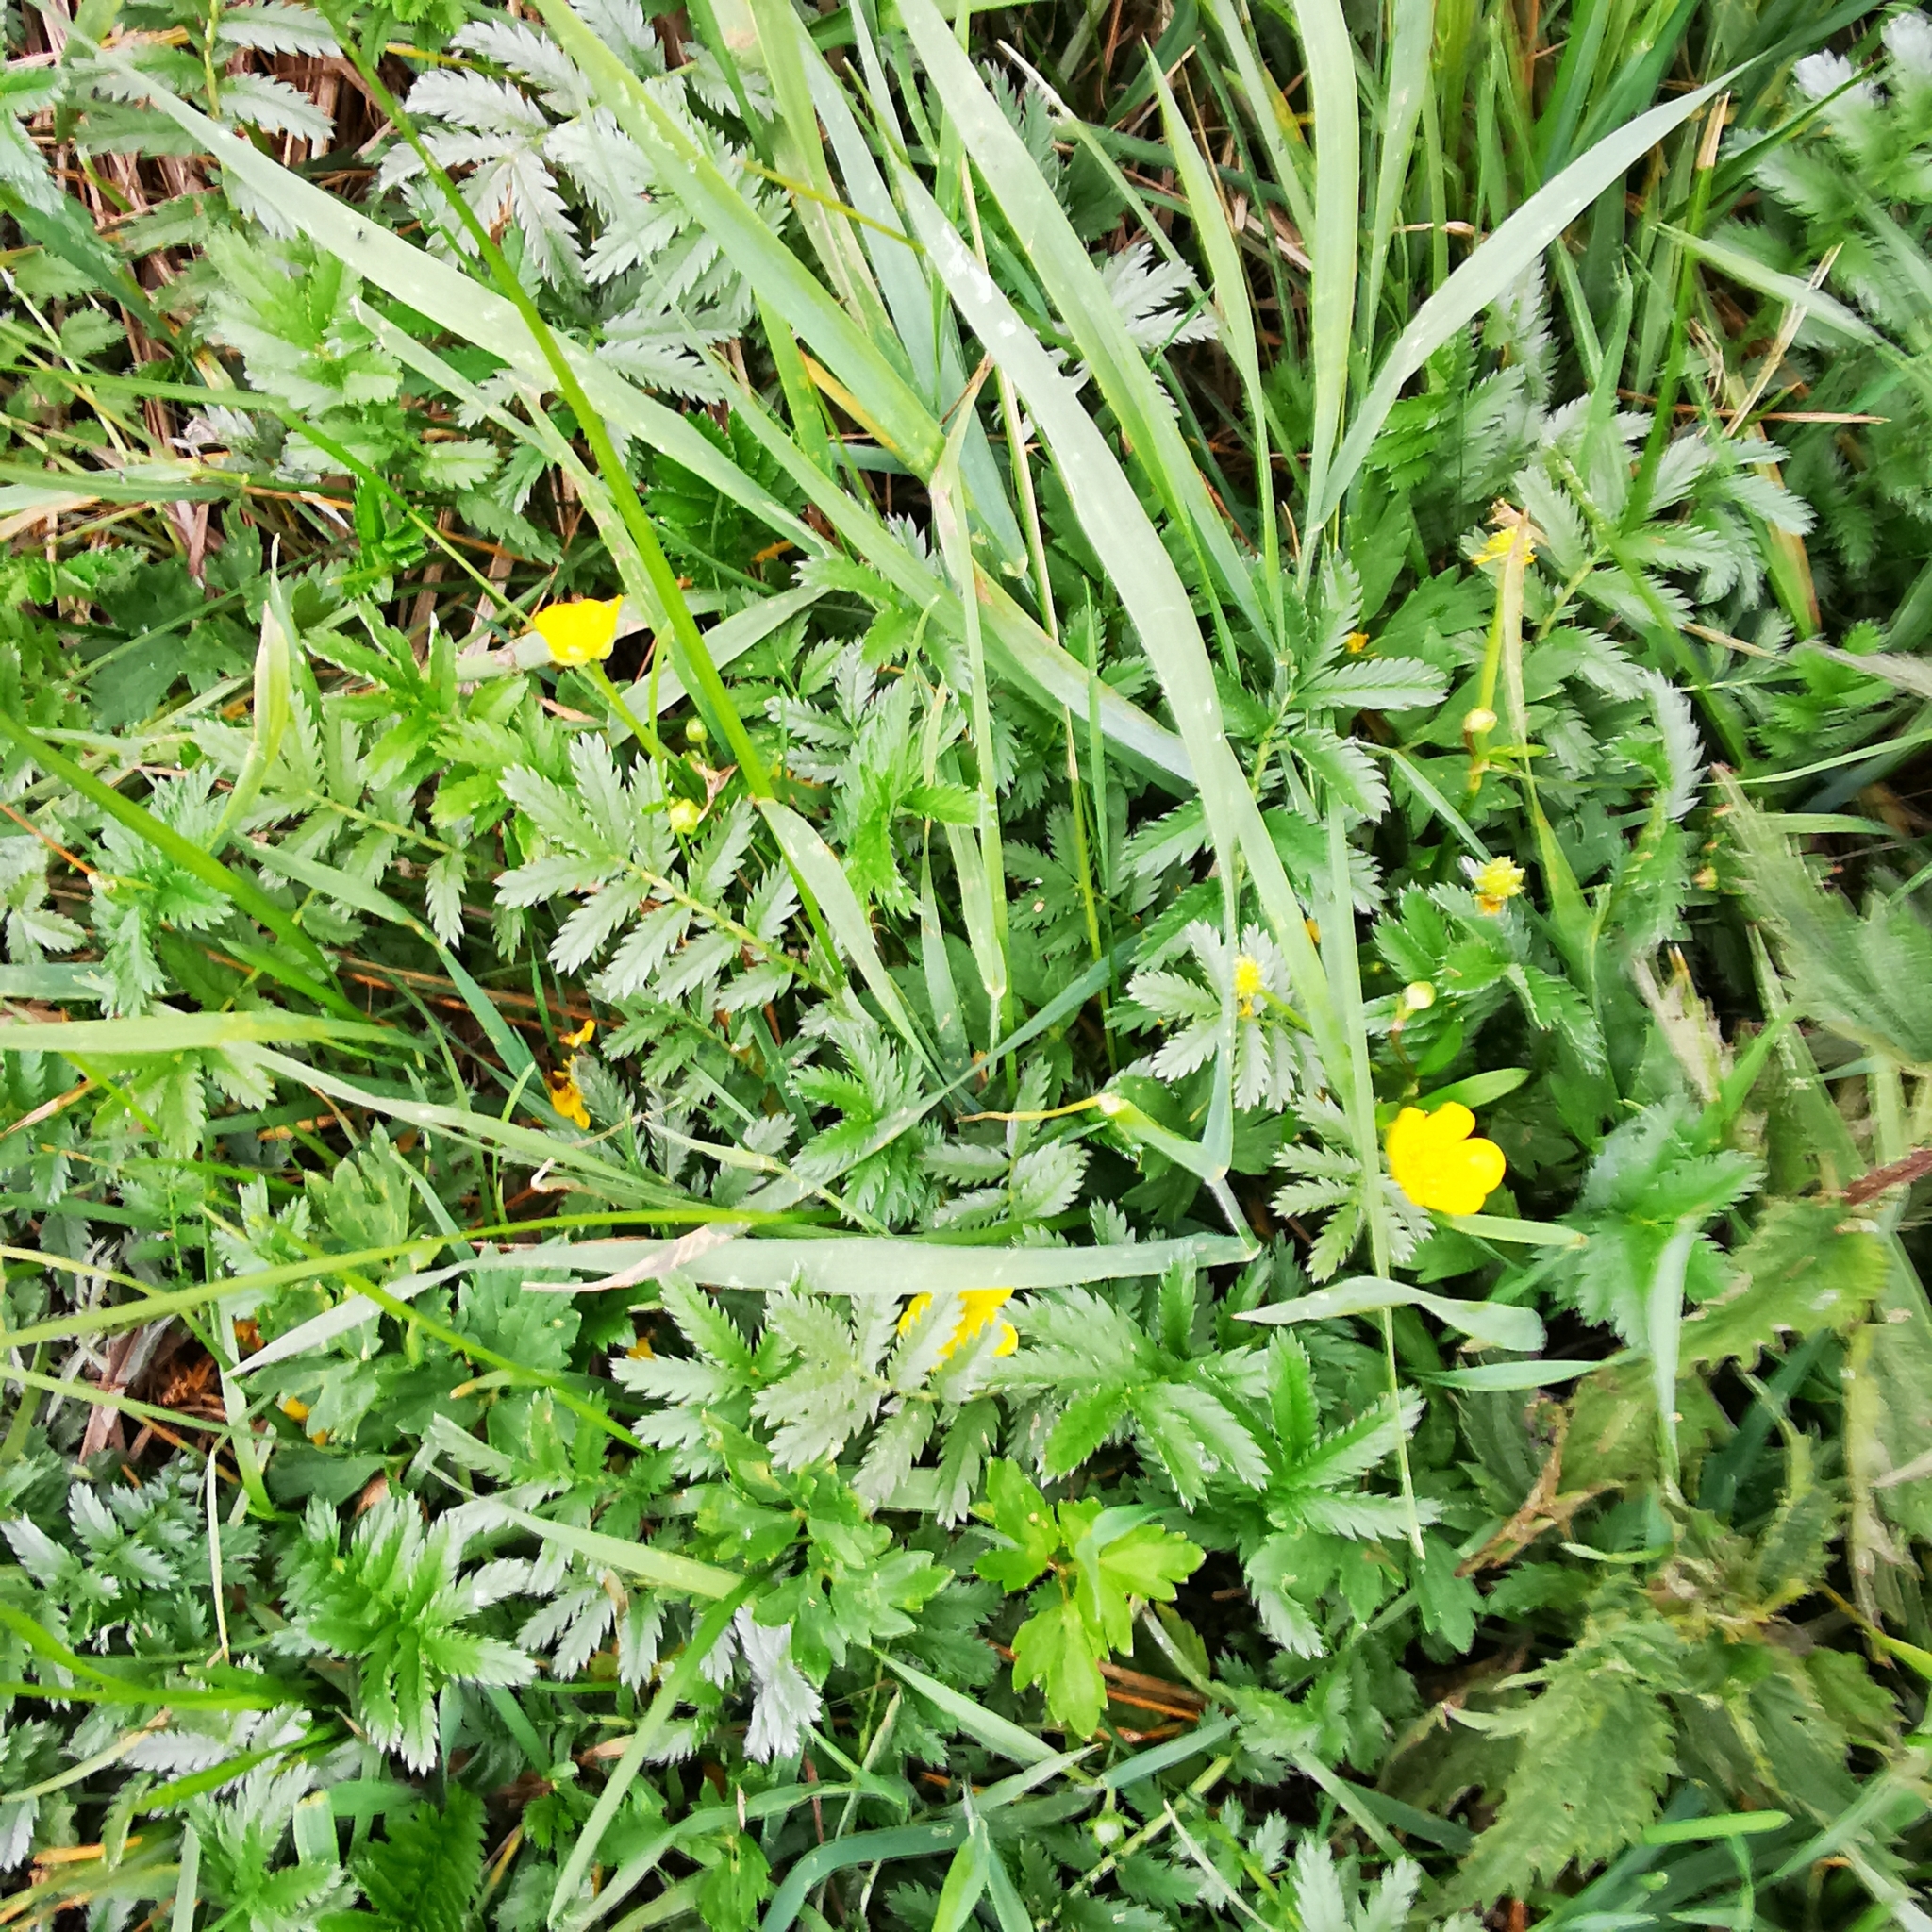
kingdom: Plantae
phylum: Tracheophyta
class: Magnoliopsida
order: Rosales
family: Rosaceae
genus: Argentina
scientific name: Argentina anserina
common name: Common silverweed
